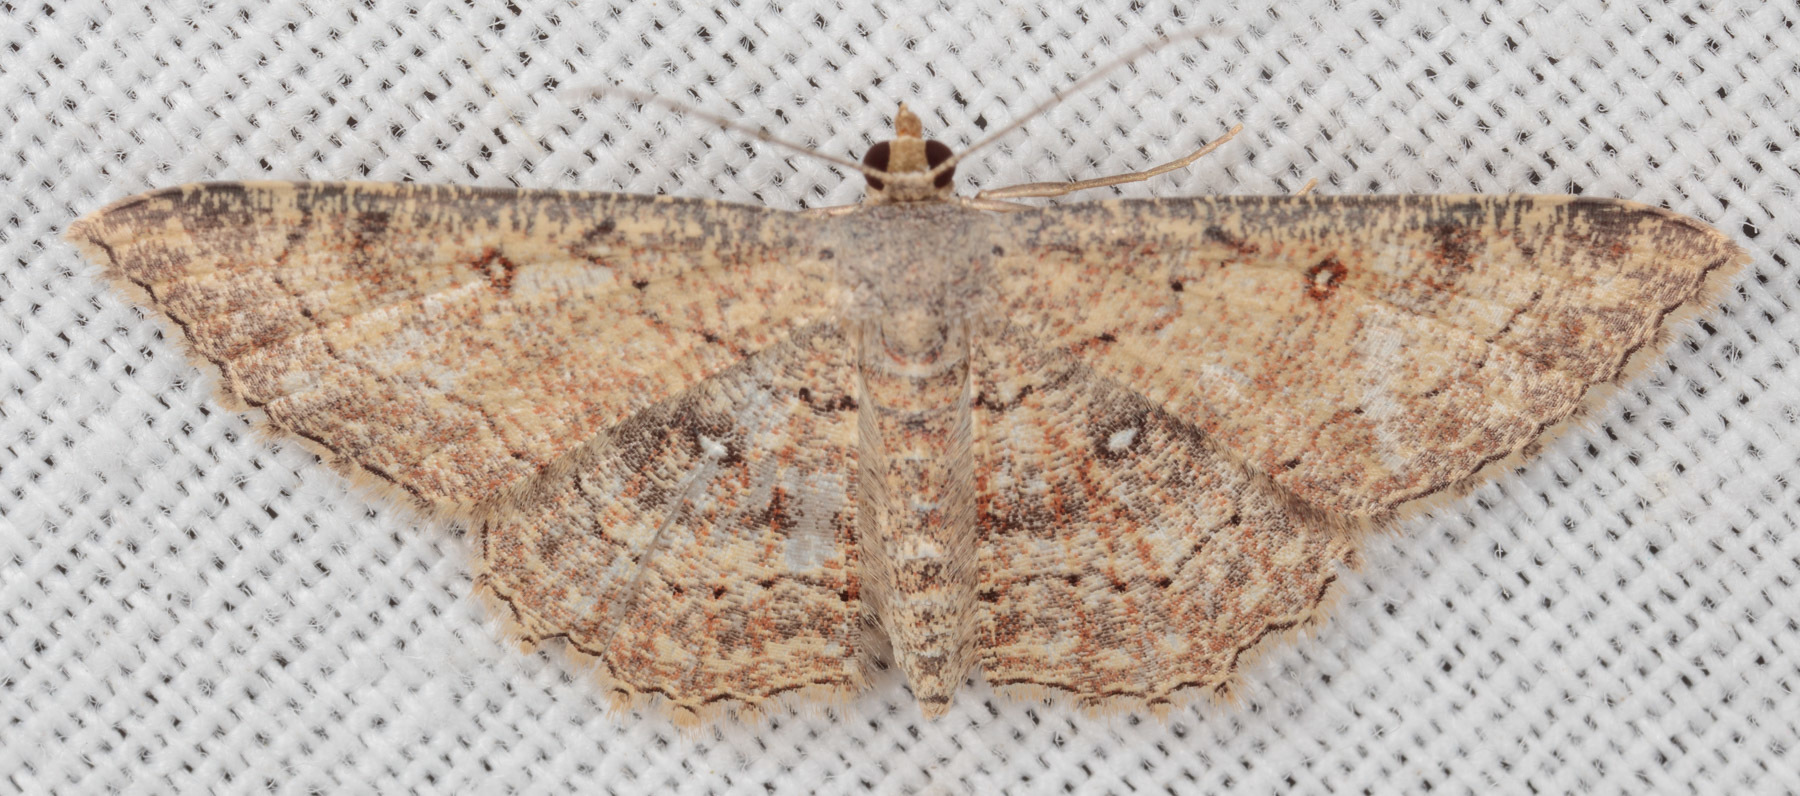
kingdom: Animalia
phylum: Arthropoda
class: Insecta
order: Lepidoptera
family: Geometridae
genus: Cyclophora
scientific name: Cyclophora nanaria
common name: Cankerworm
